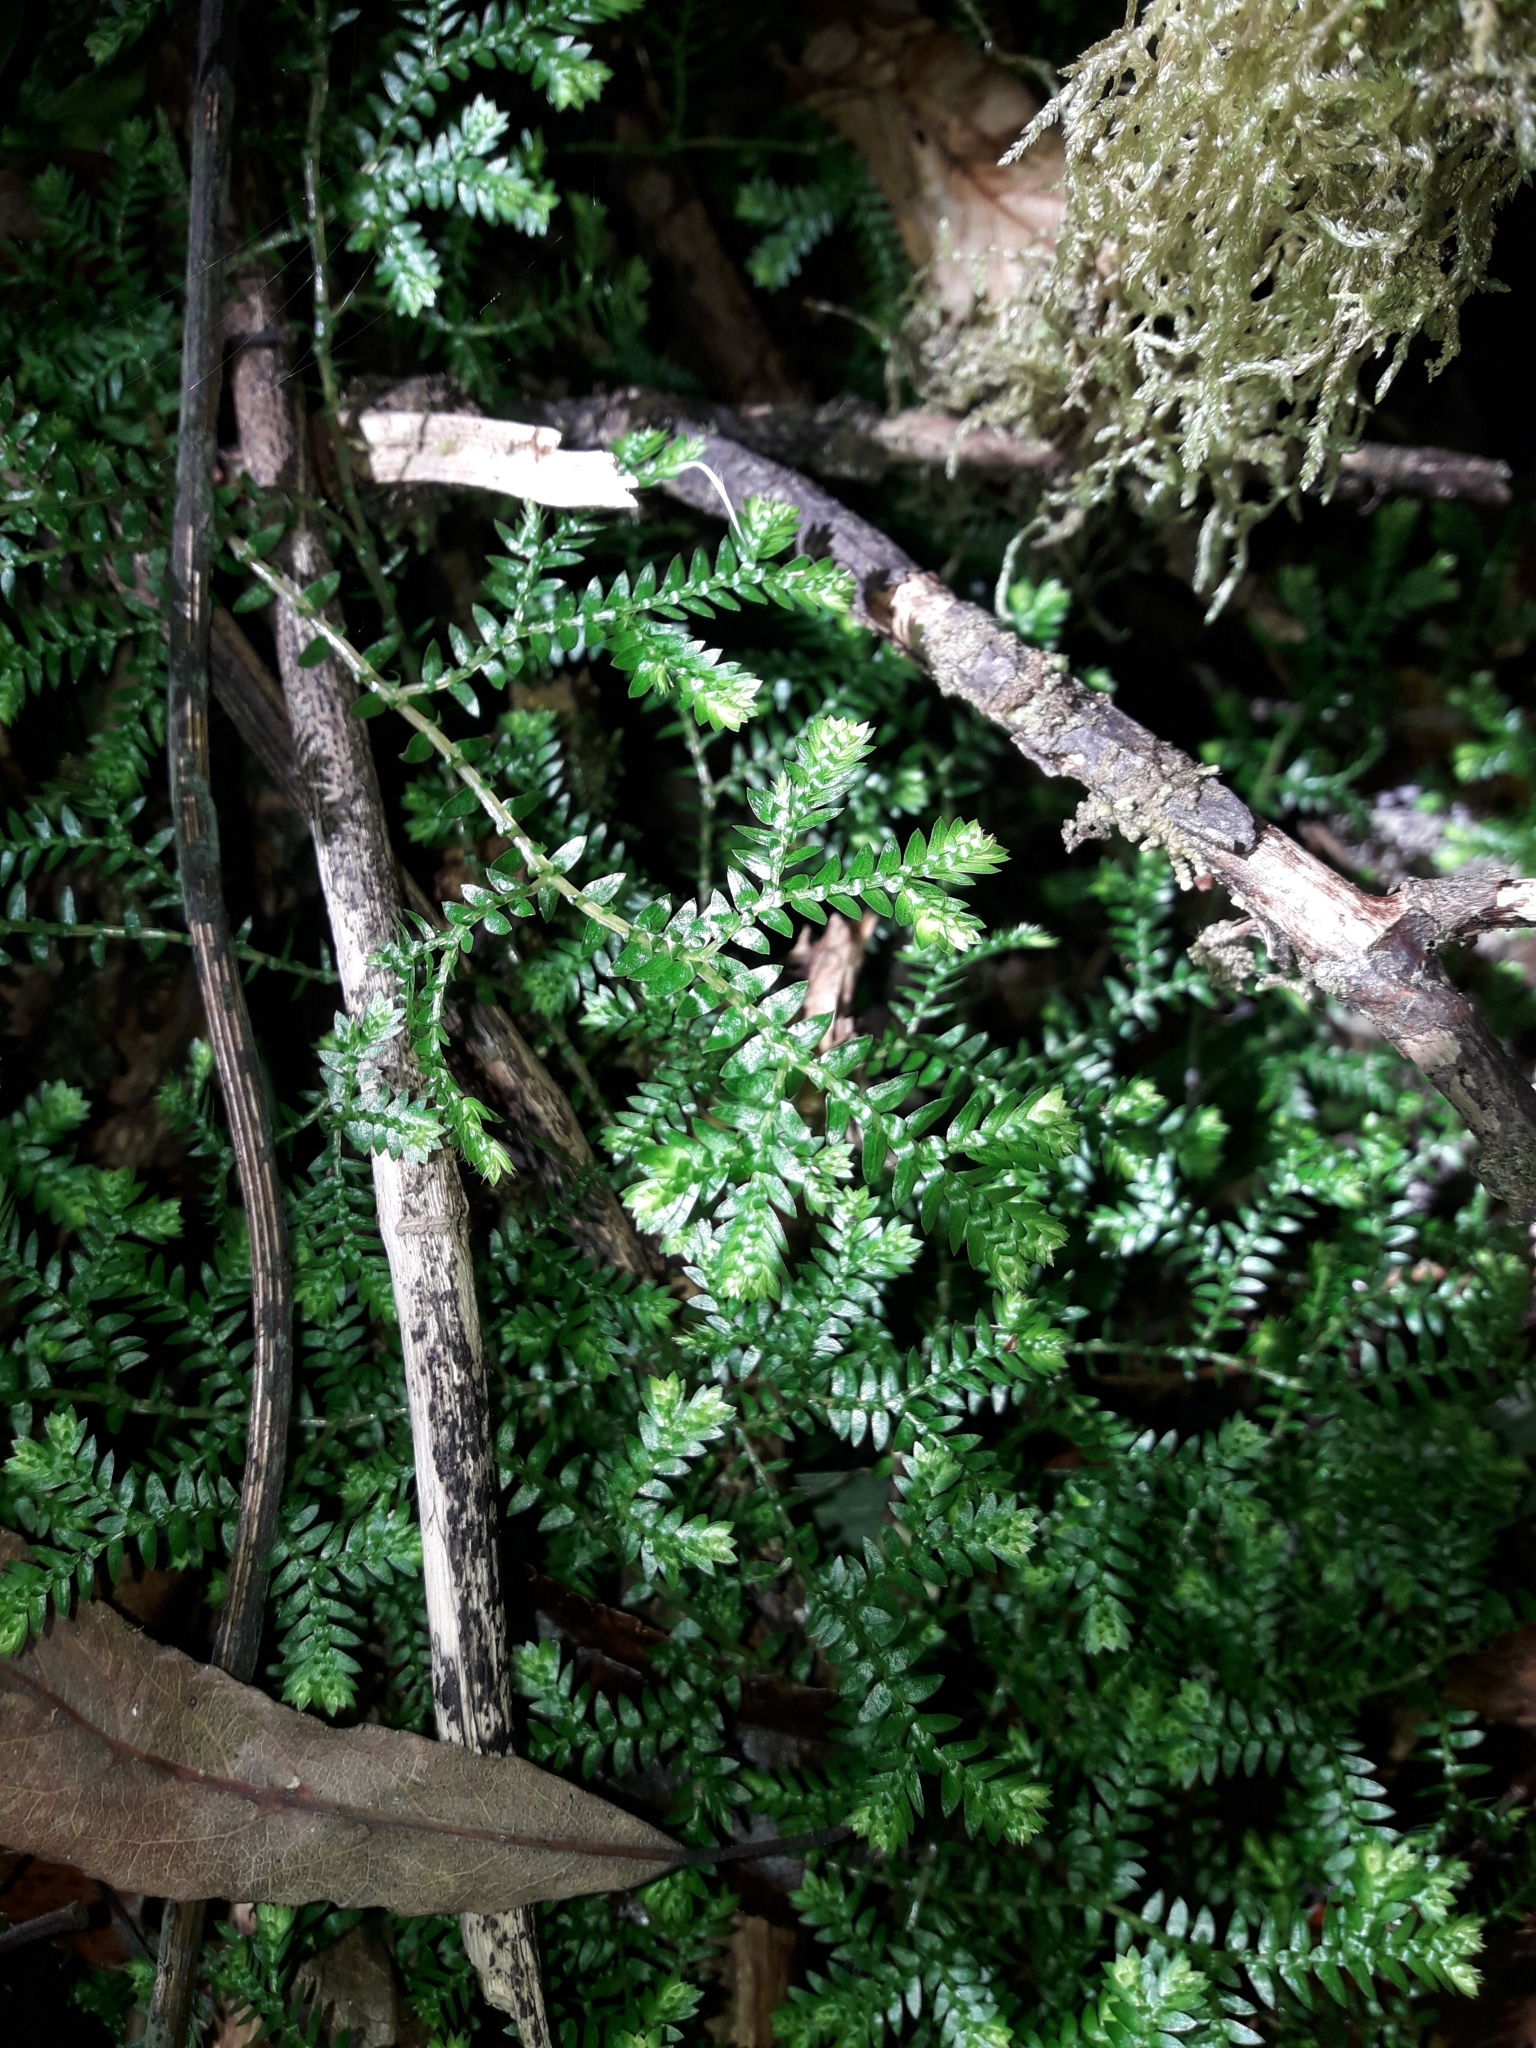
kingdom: Plantae
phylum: Tracheophyta
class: Lycopodiopsida
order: Selaginellales
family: Selaginellaceae
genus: Selaginella
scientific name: Selaginella kraussiana
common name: Krauss' spikemoss
